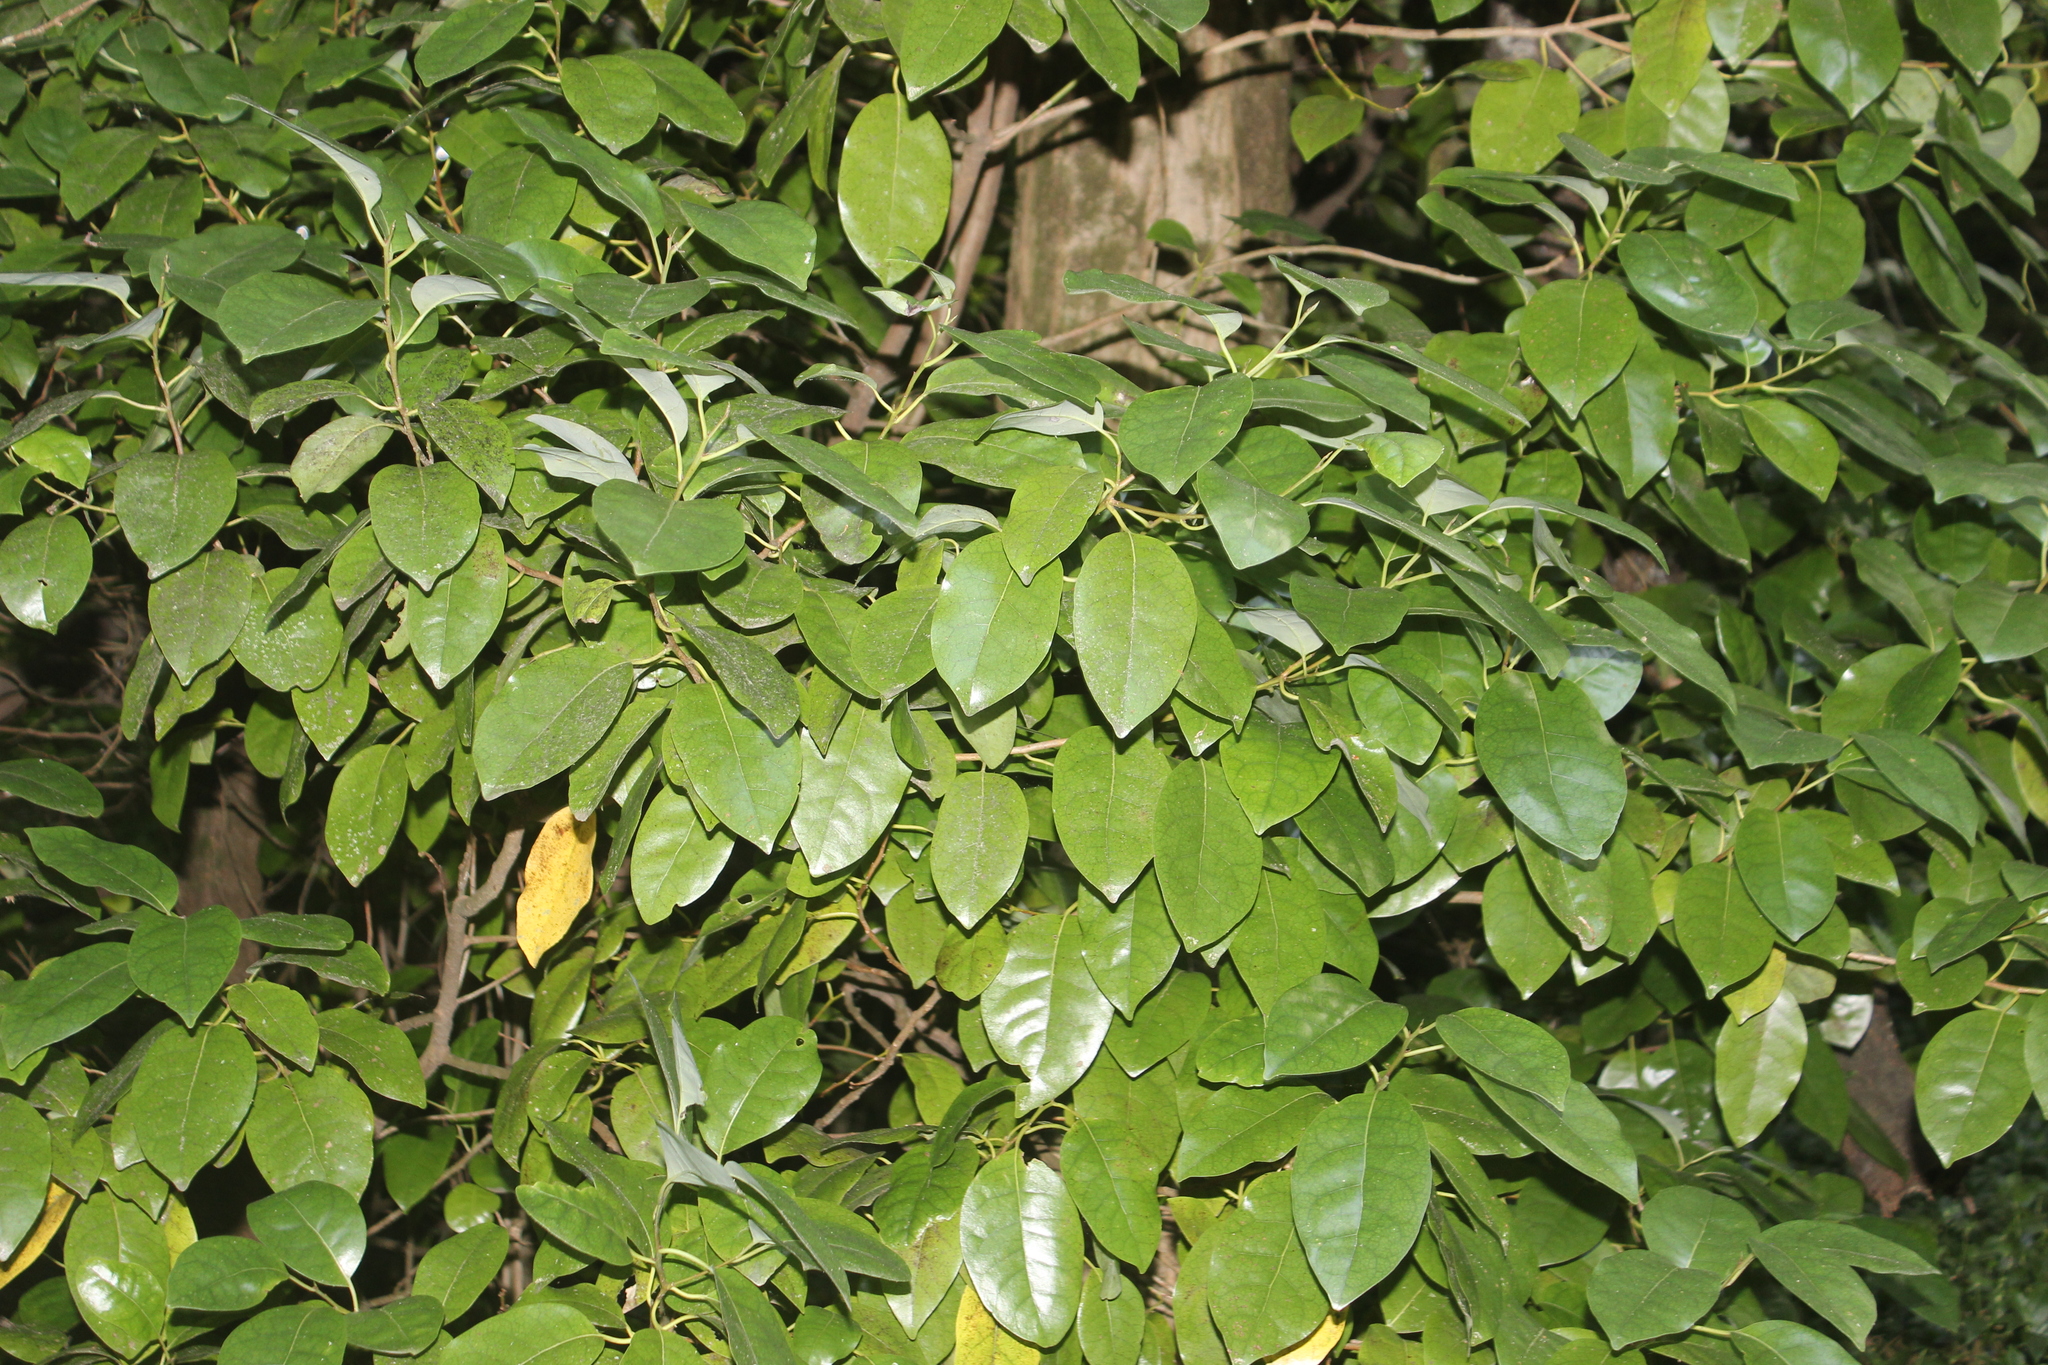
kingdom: Plantae
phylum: Tracheophyta
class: Magnoliopsida
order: Laurales
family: Lauraceae
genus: Litsea
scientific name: Litsea calicaris
